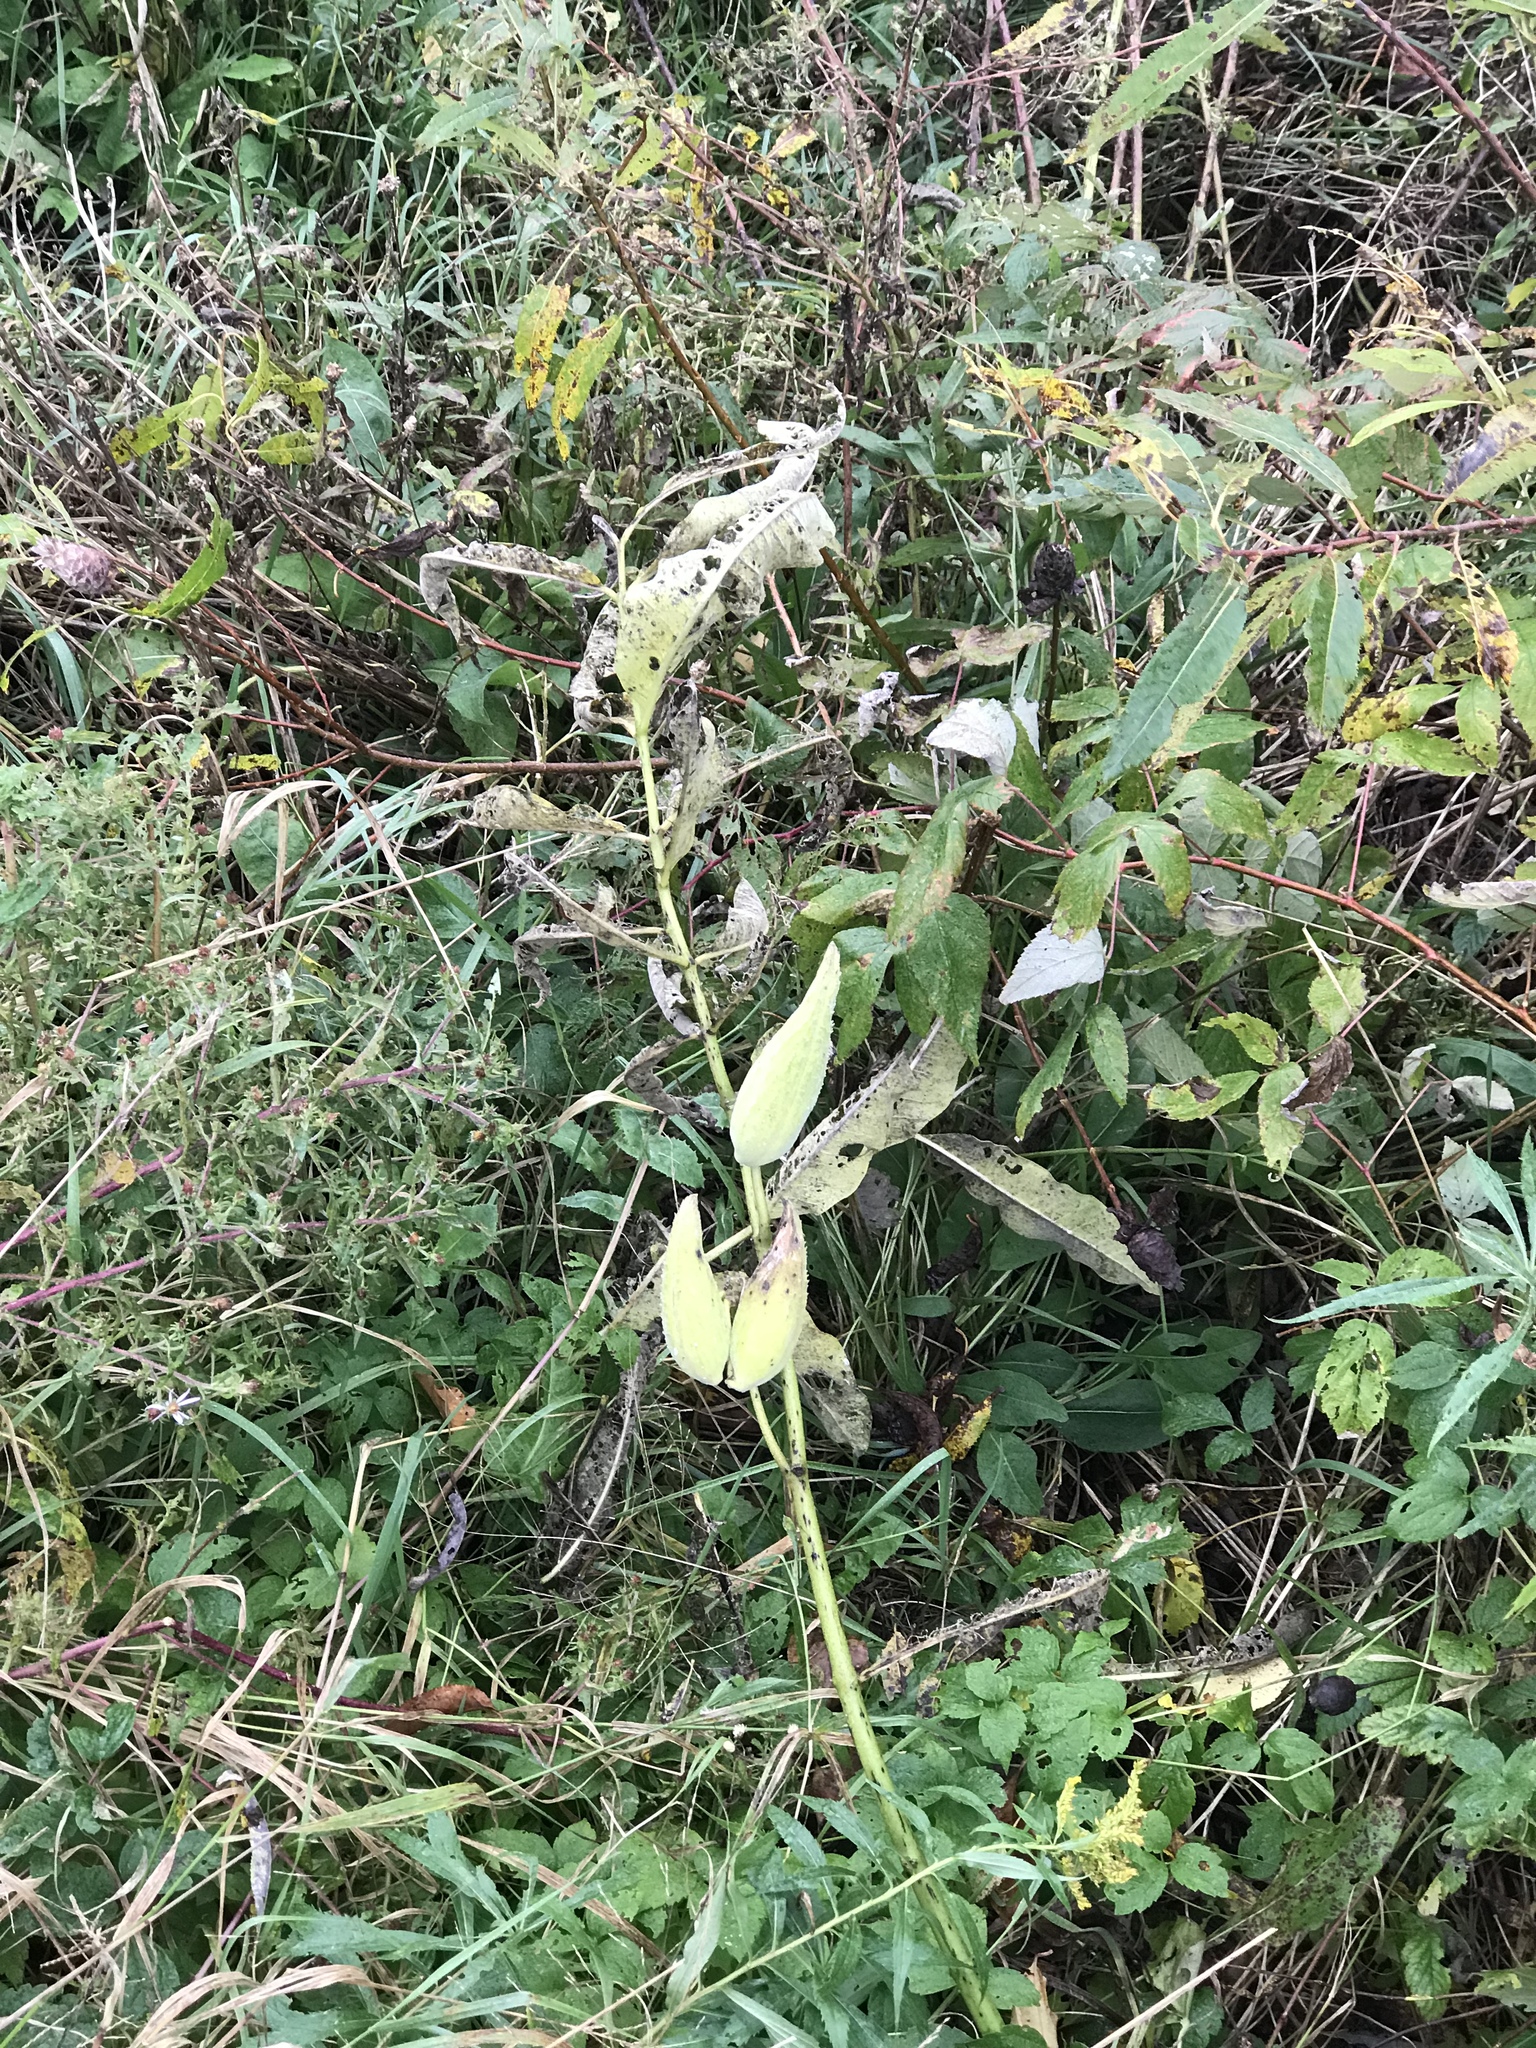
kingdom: Plantae
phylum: Tracheophyta
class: Magnoliopsida
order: Gentianales
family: Apocynaceae
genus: Asclepias
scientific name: Asclepias syriaca
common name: Common milkweed
